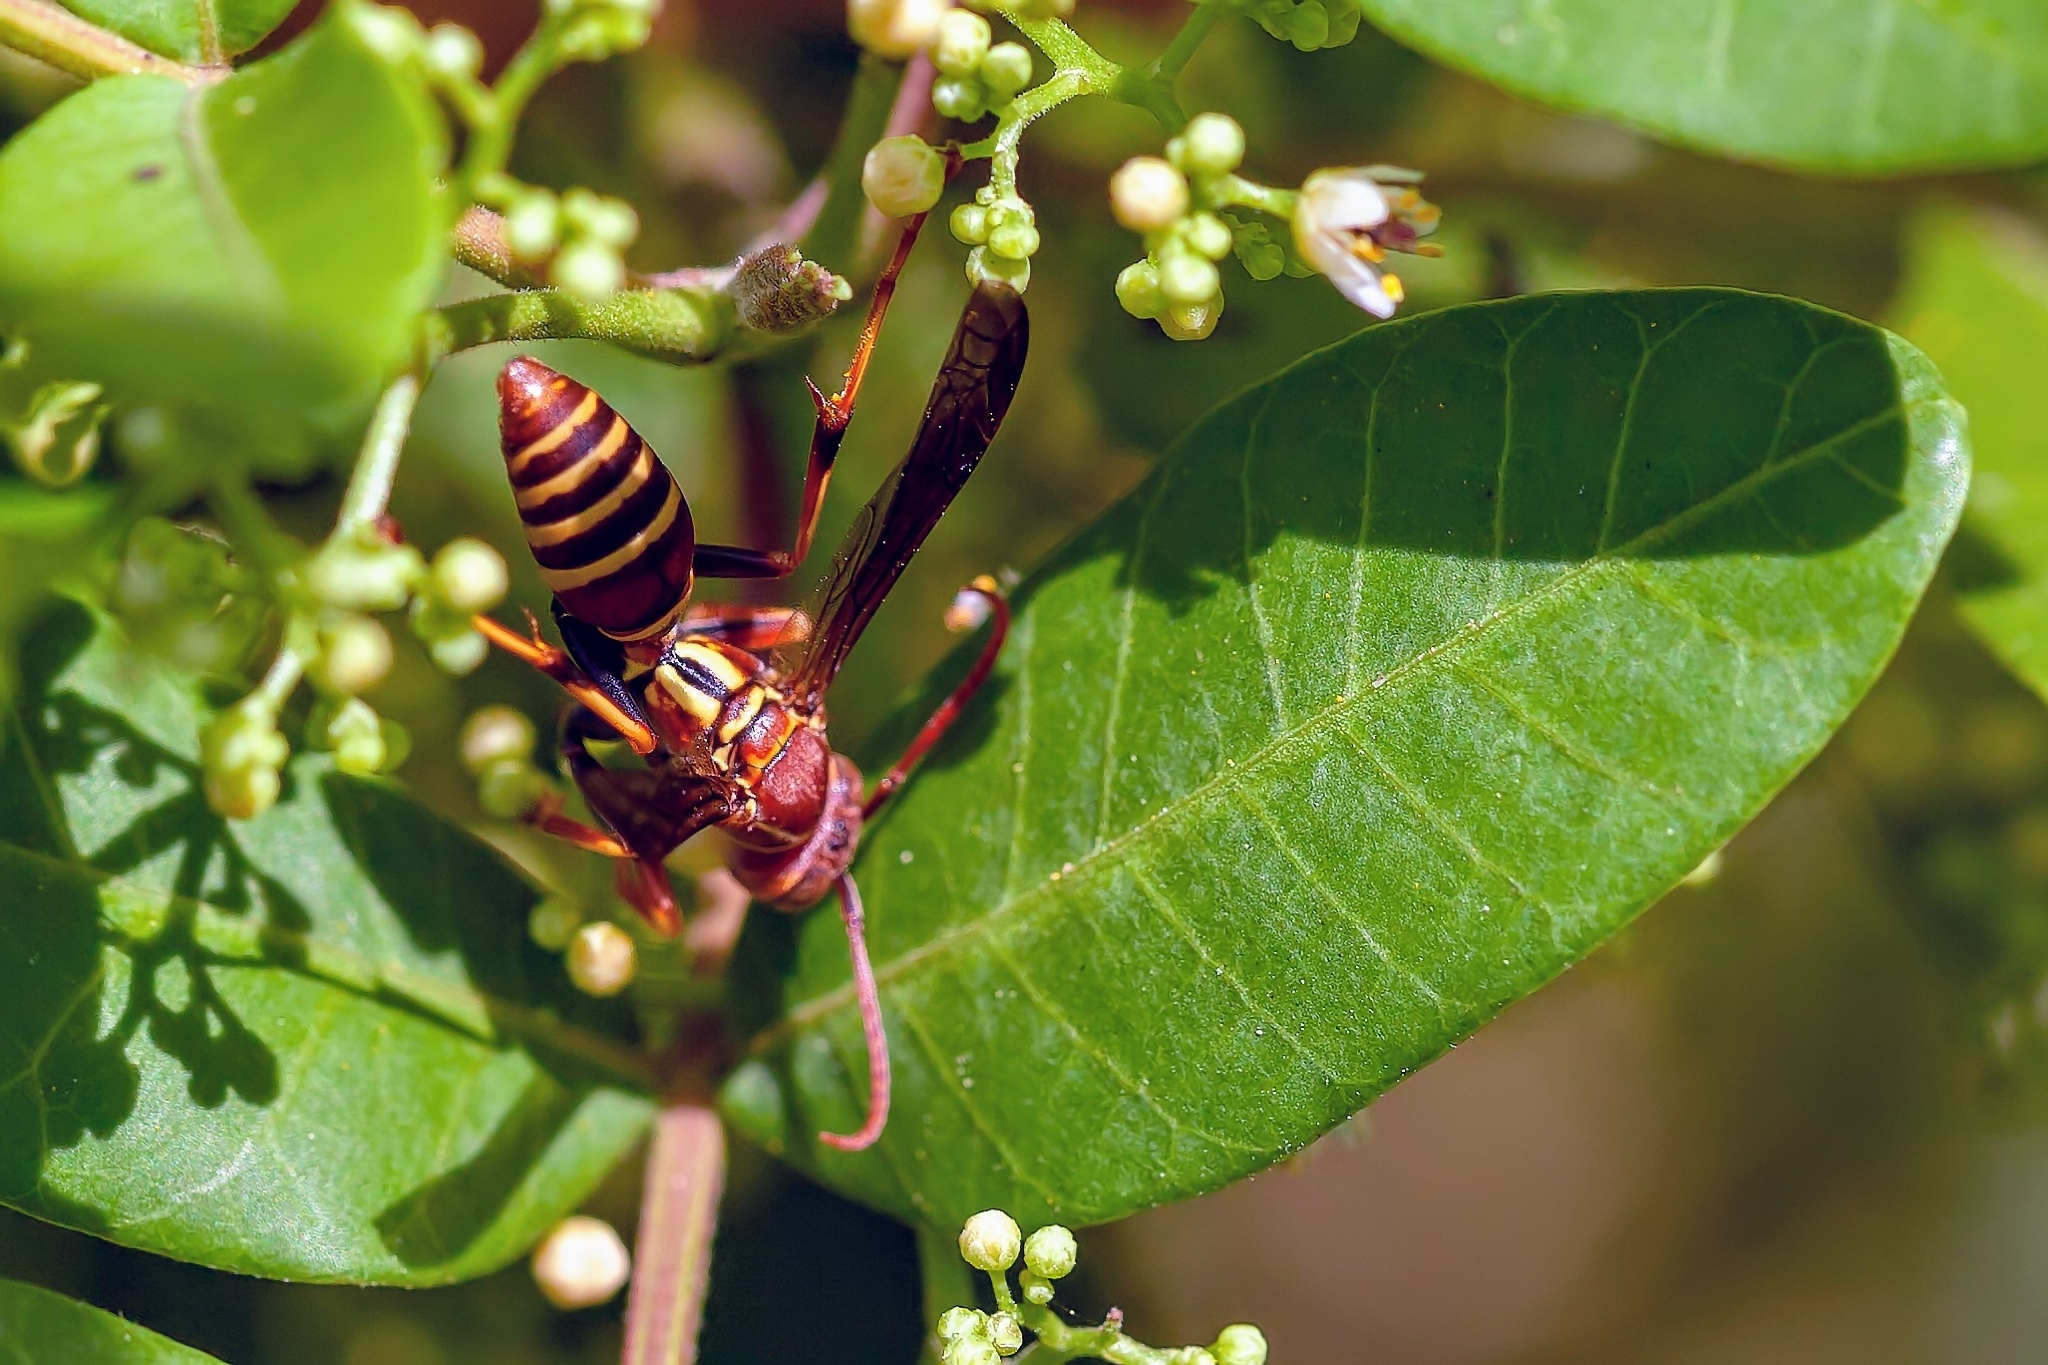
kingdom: Animalia
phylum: Arthropoda
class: Insecta
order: Hymenoptera
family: Eumenidae
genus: Polistes
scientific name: Polistes dorsalis
